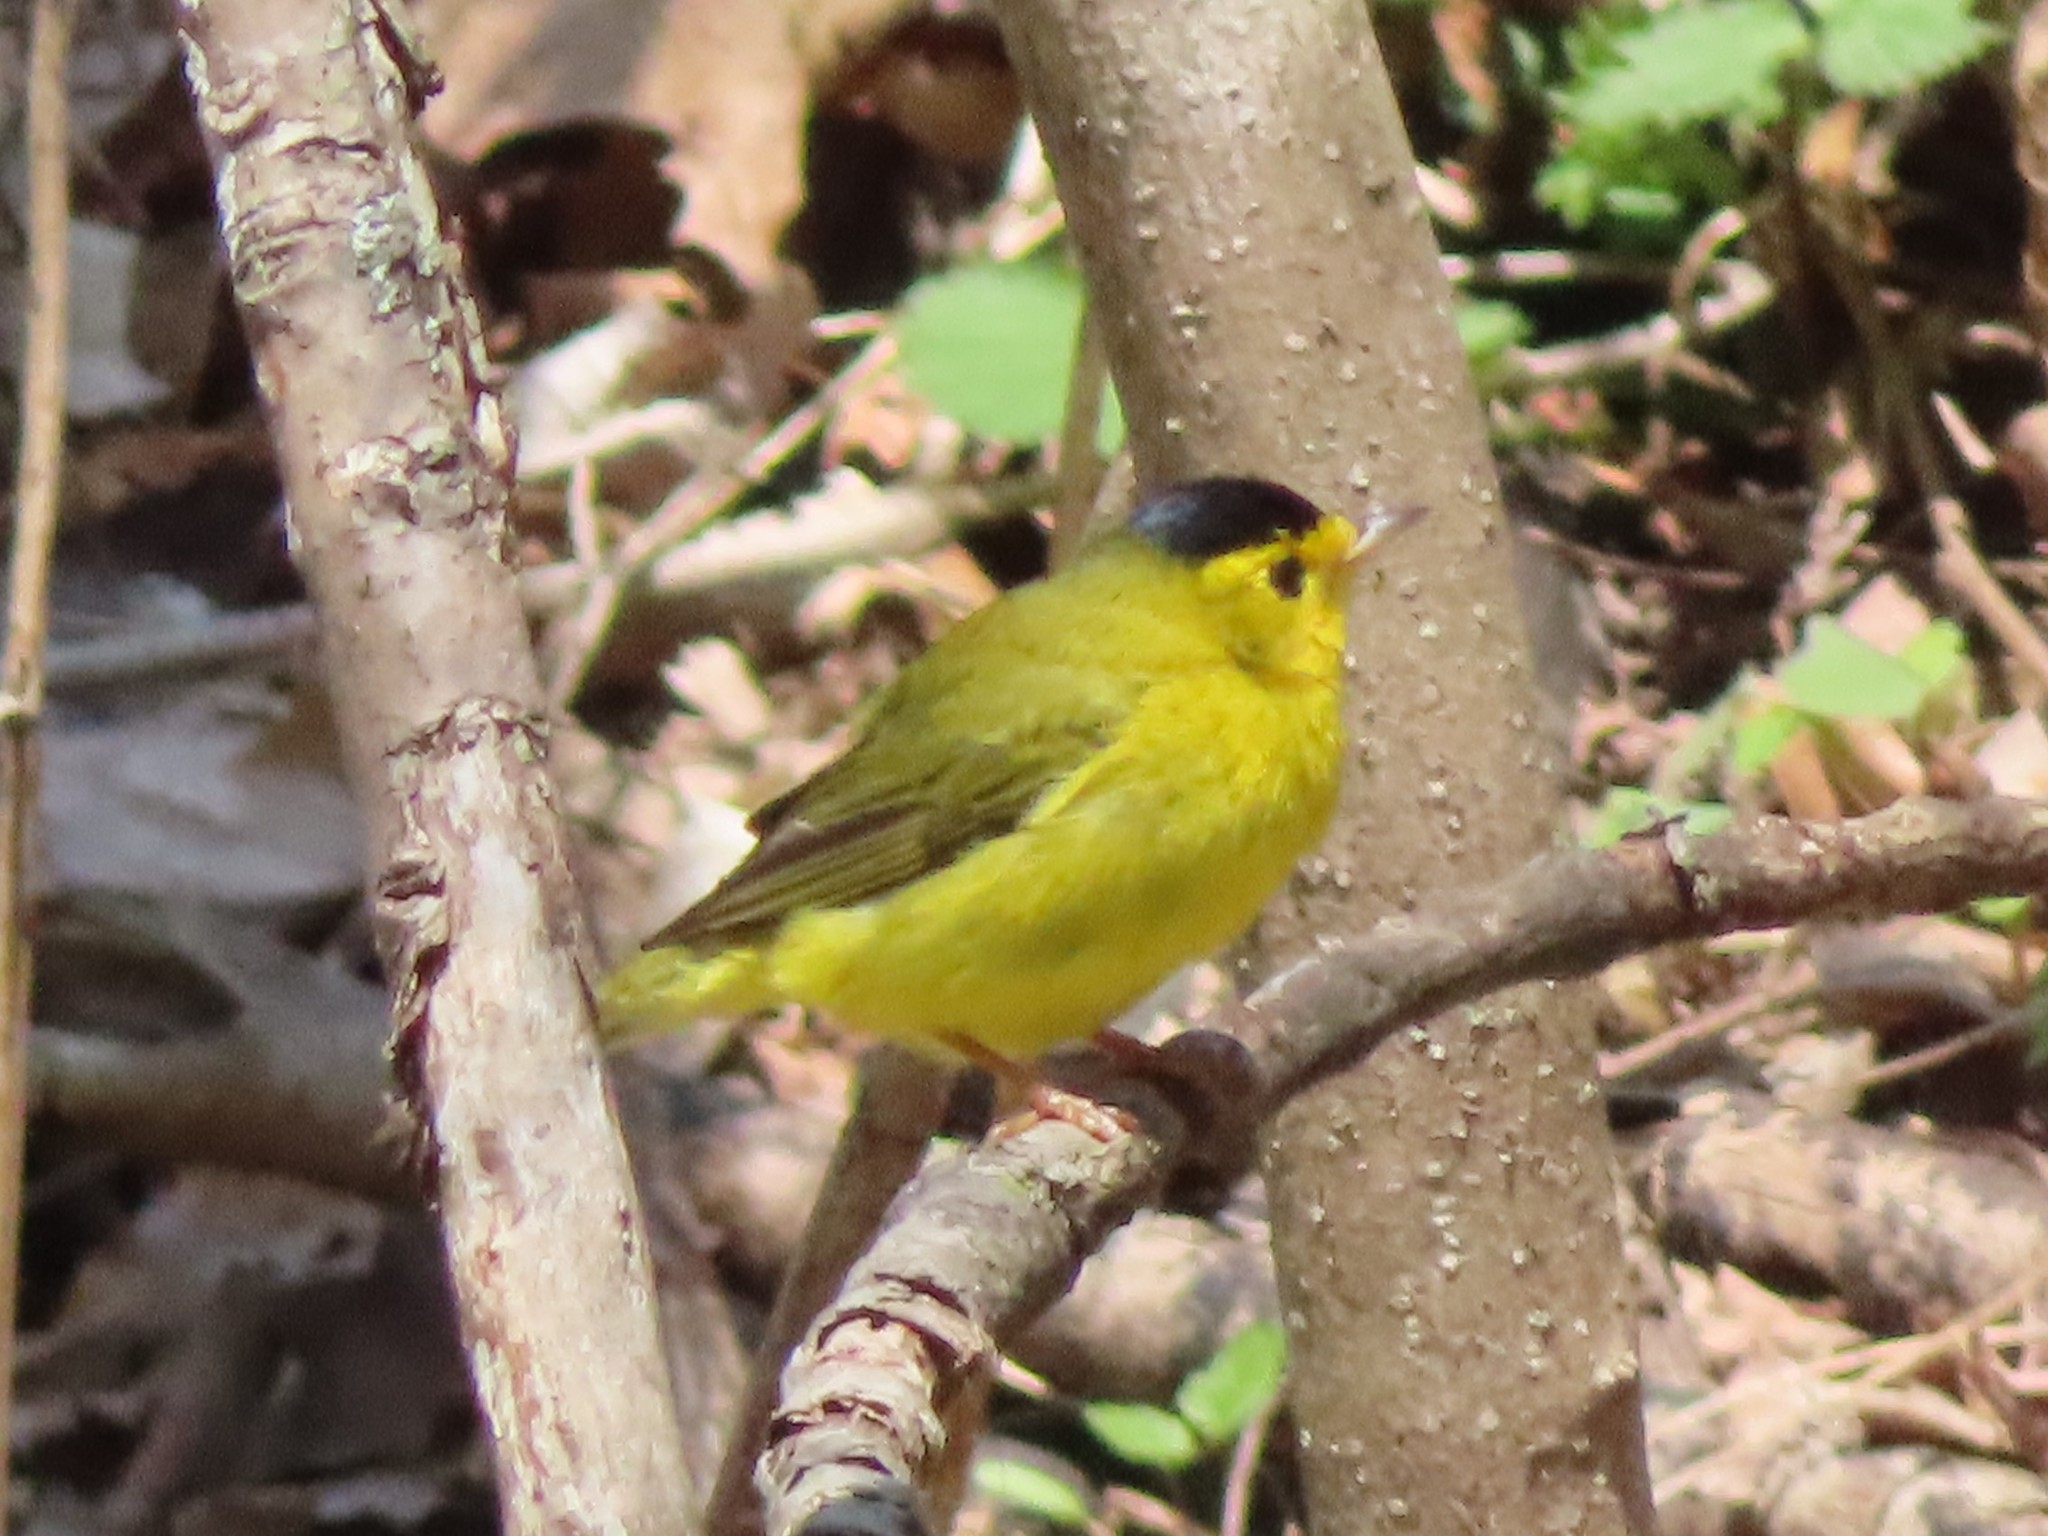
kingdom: Animalia
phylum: Chordata
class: Aves
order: Passeriformes
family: Parulidae
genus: Cardellina
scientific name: Cardellina pusilla
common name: Wilson's warbler
